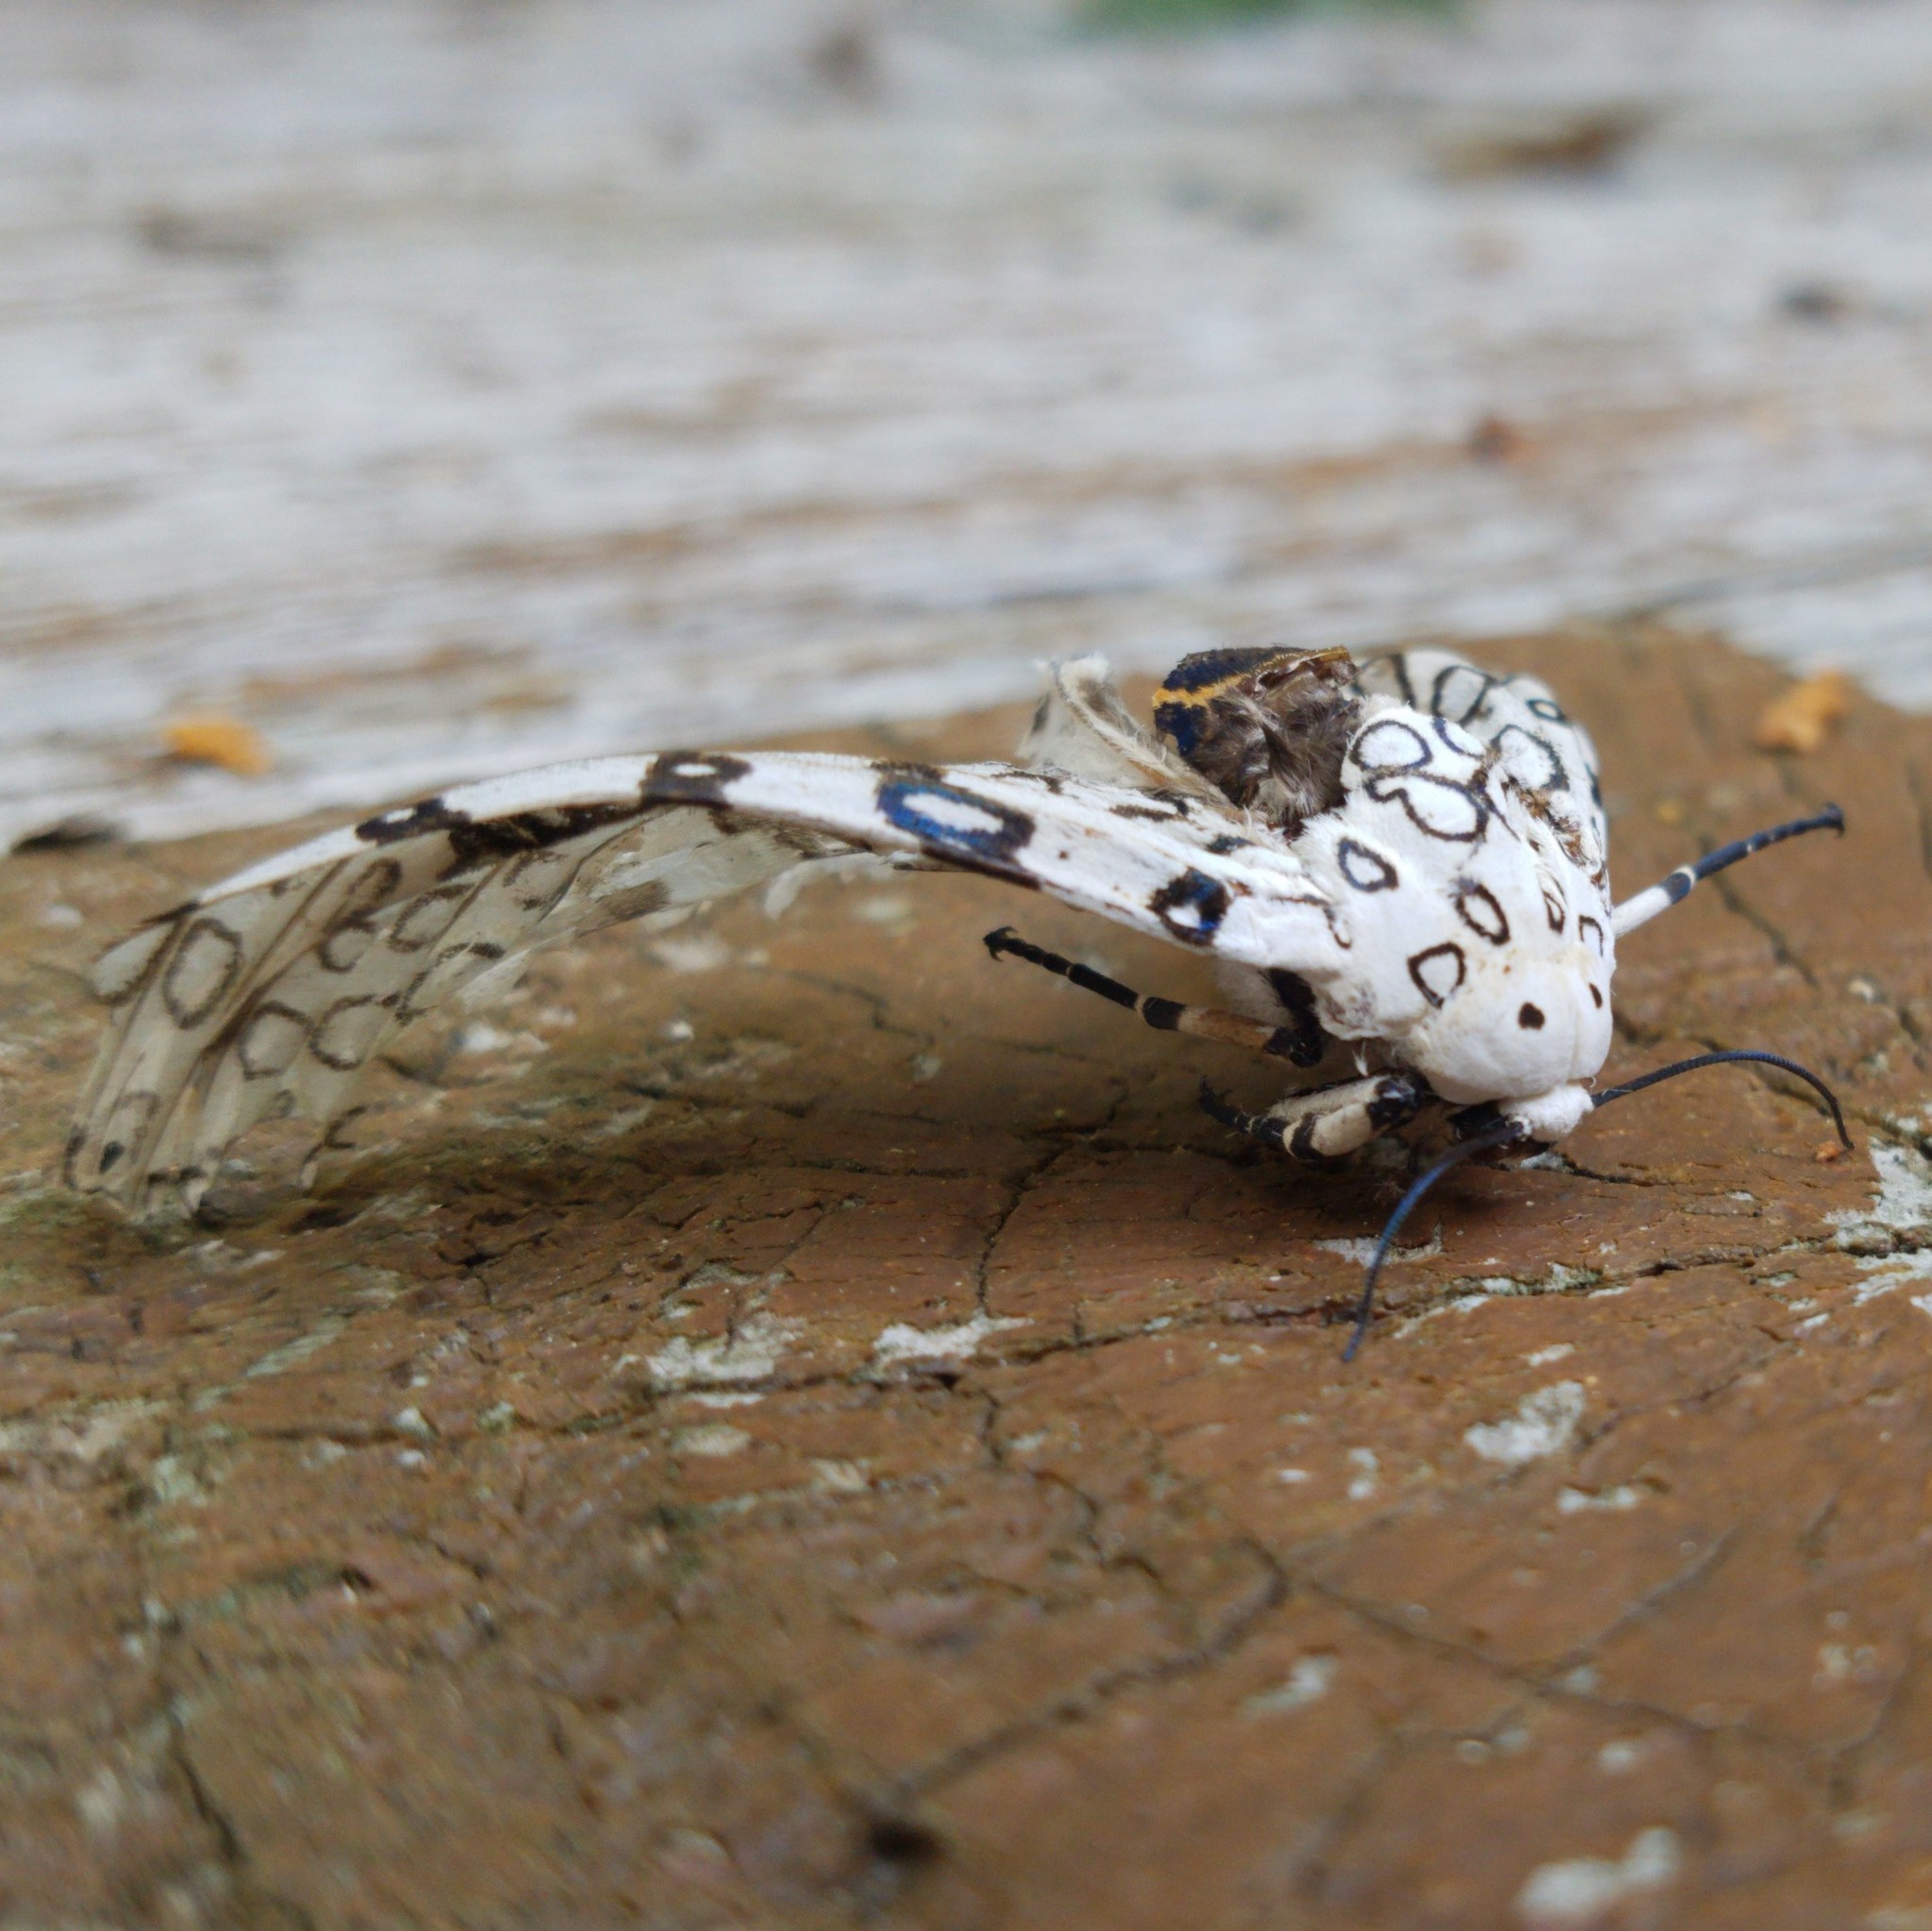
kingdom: Animalia
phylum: Arthropoda
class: Insecta
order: Lepidoptera
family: Erebidae
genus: Hypercompe
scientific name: Hypercompe scribonia
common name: Giant leopard moth
